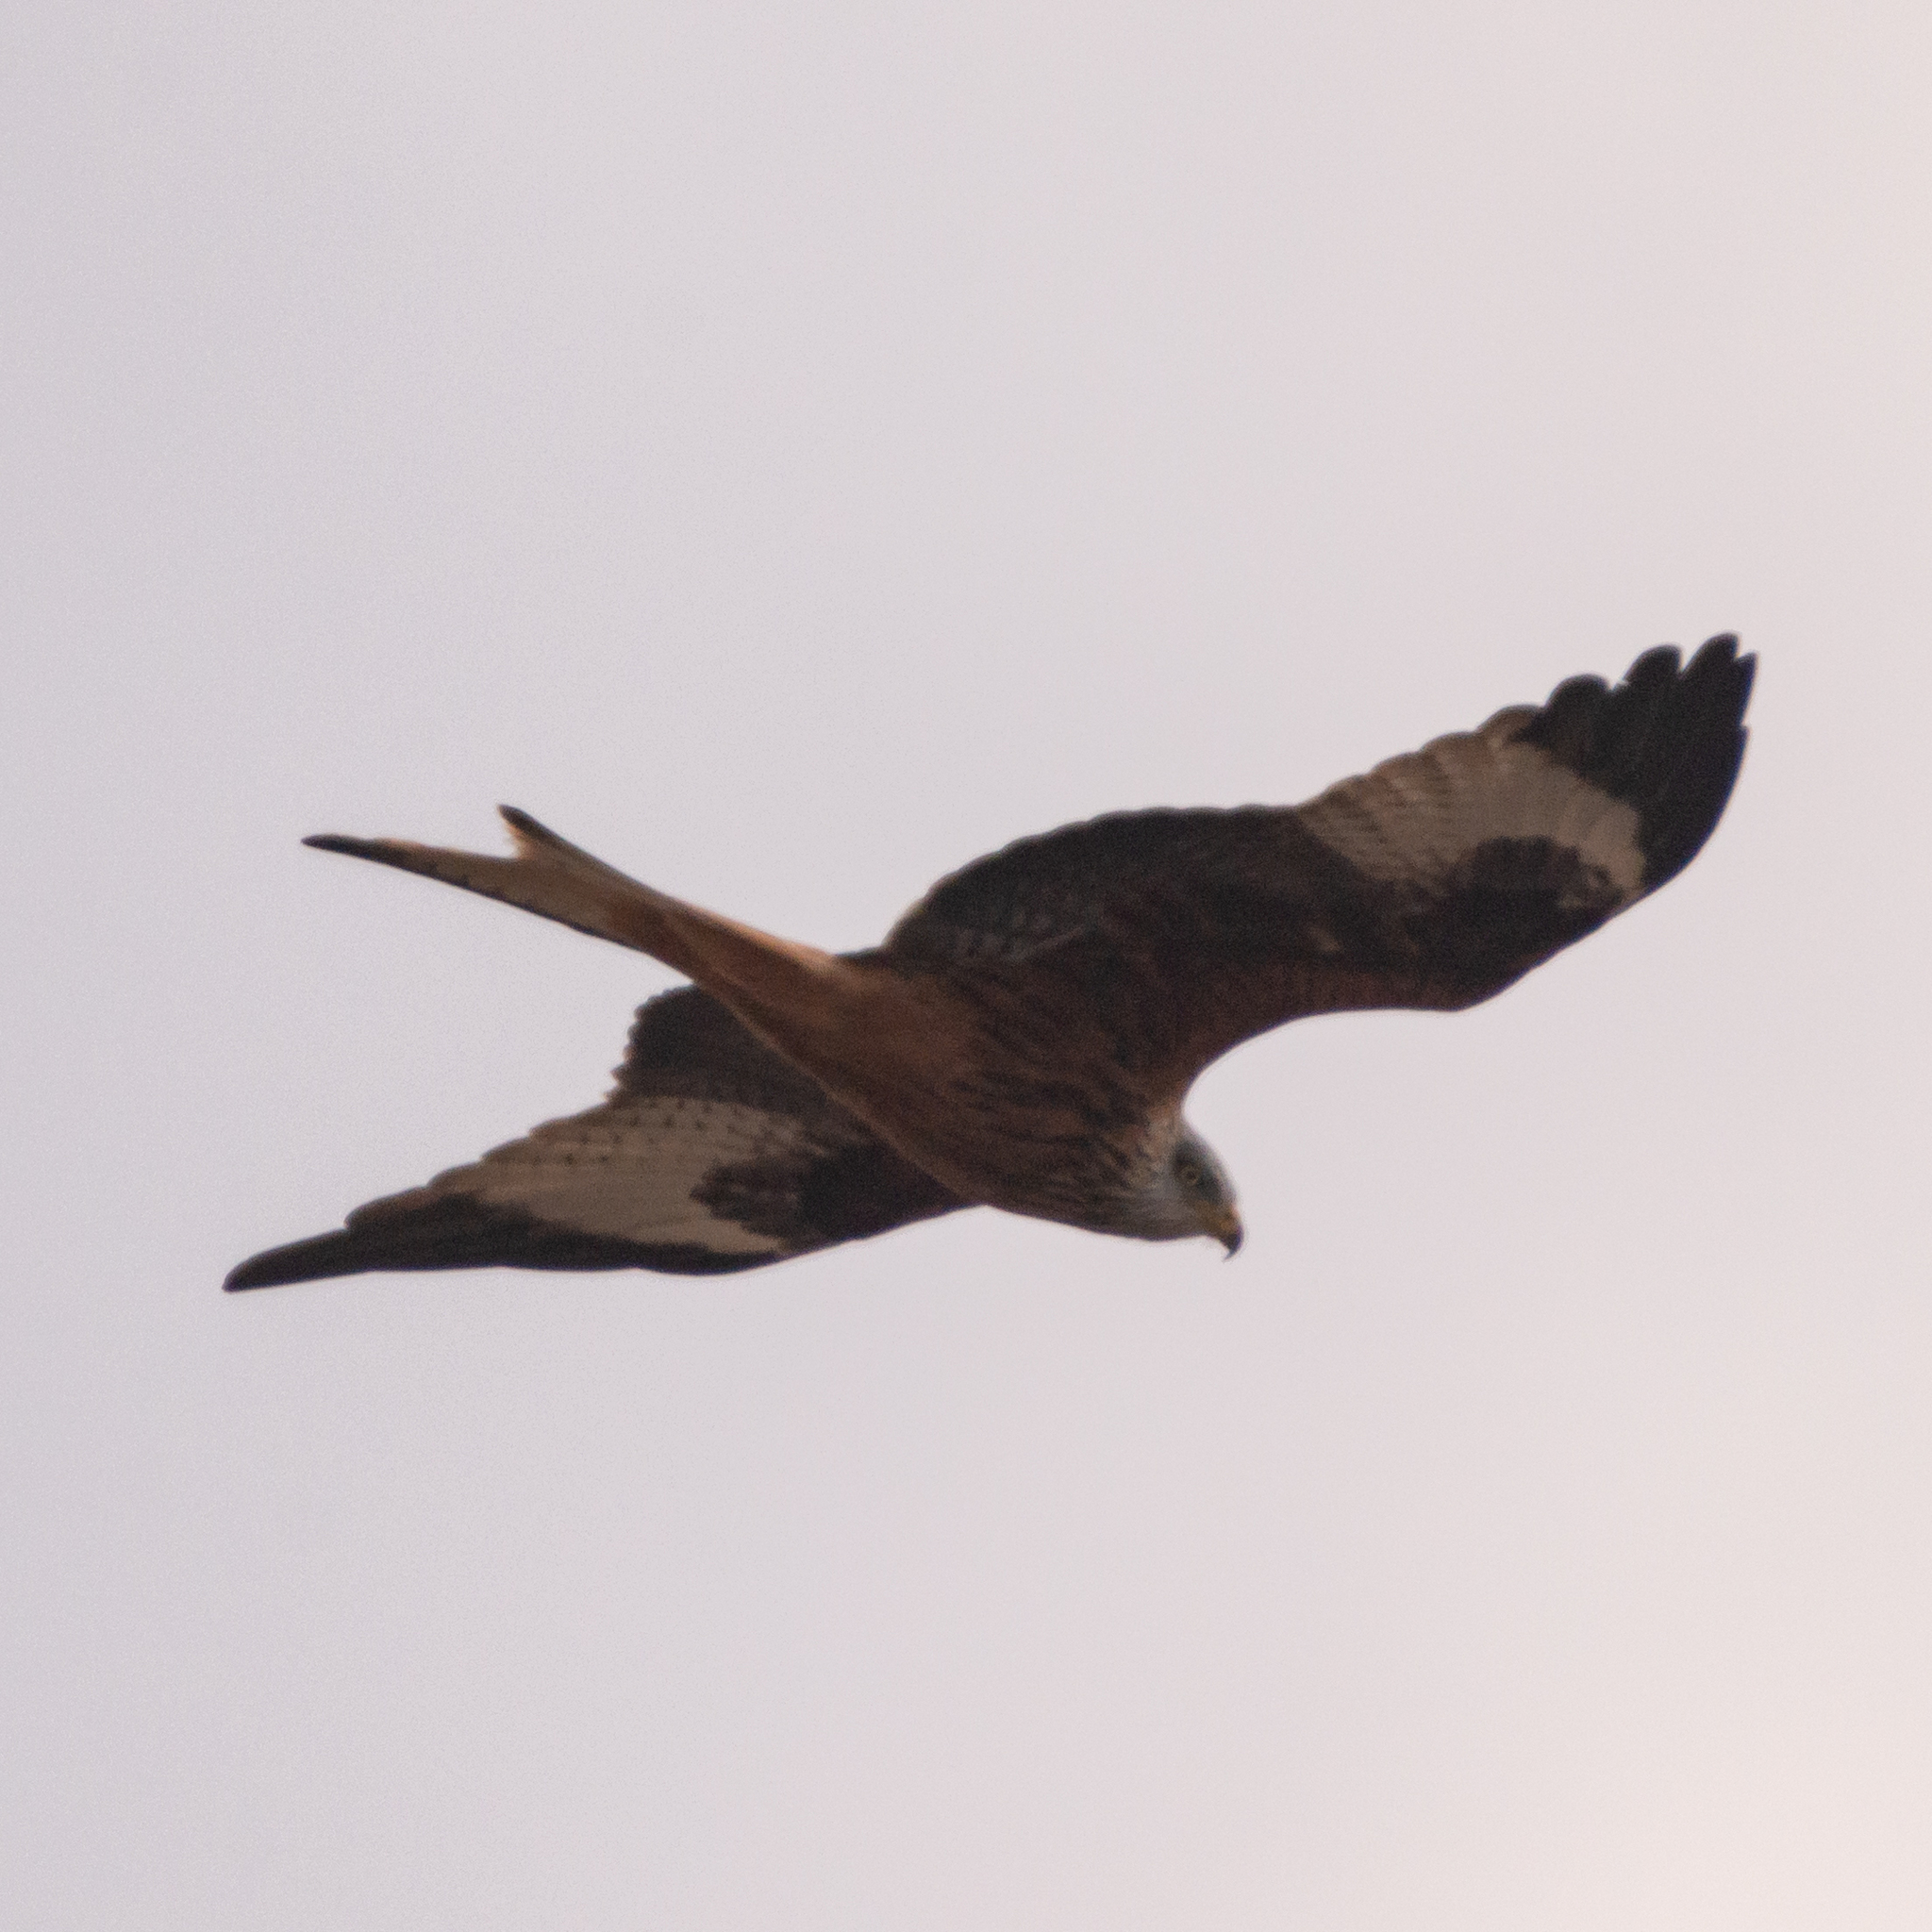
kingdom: Animalia
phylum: Chordata
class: Aves
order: Accipitriformes
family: Accipitridae
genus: Milvus
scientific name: Milvus milvus
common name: Red kite
